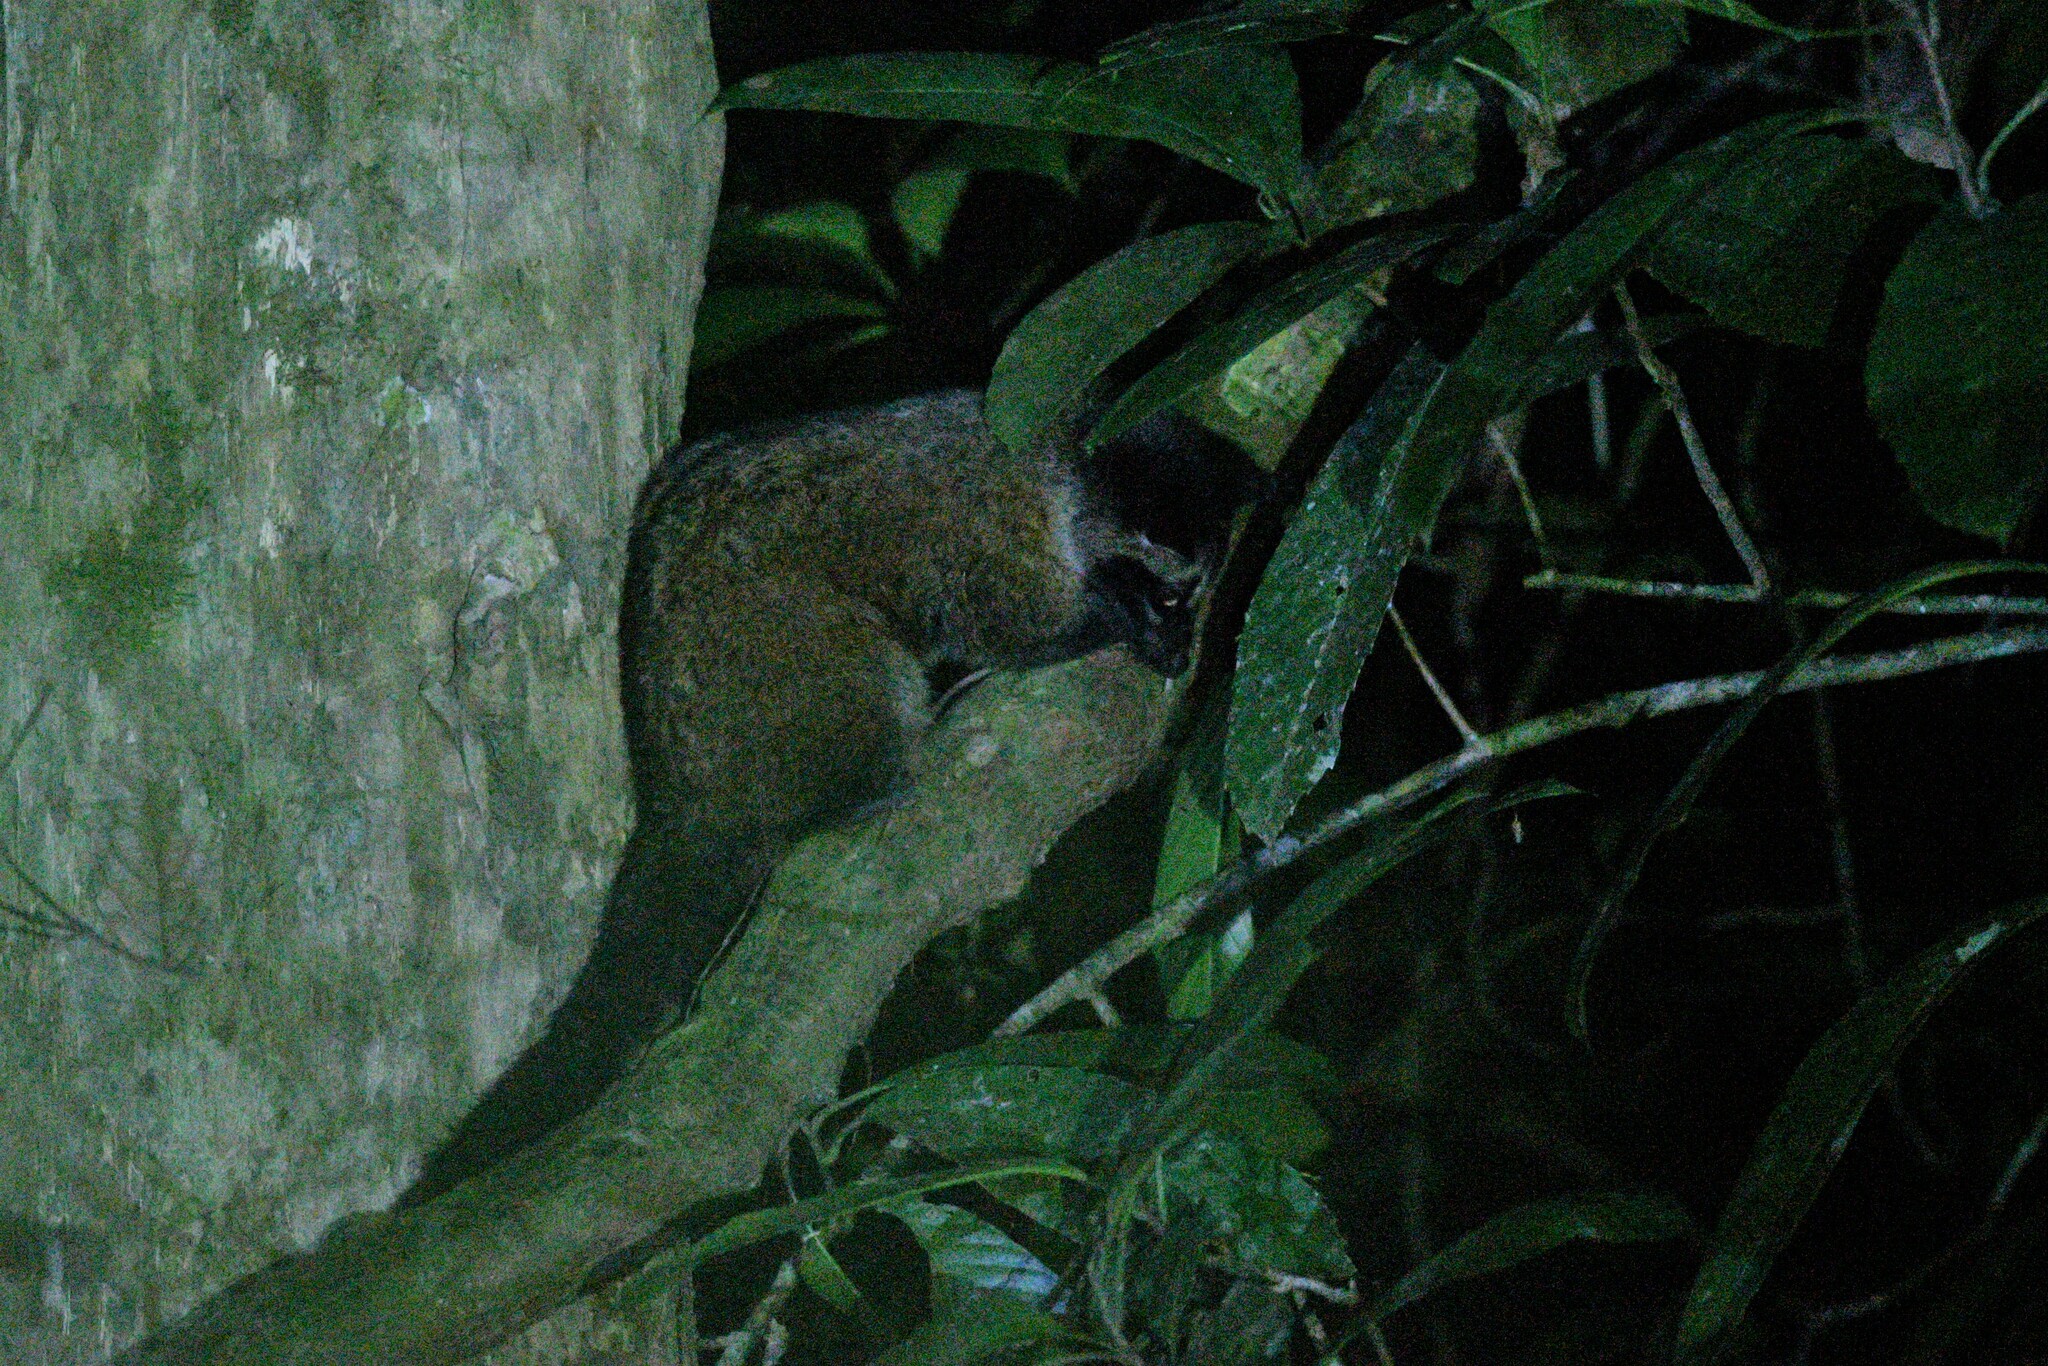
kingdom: Animalia
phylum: Chordata
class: Mammalia
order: Carnivora
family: Viverridae
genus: Arctogalidia
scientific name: Arctogalidia trivirgata
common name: Small-toothed palm civet
